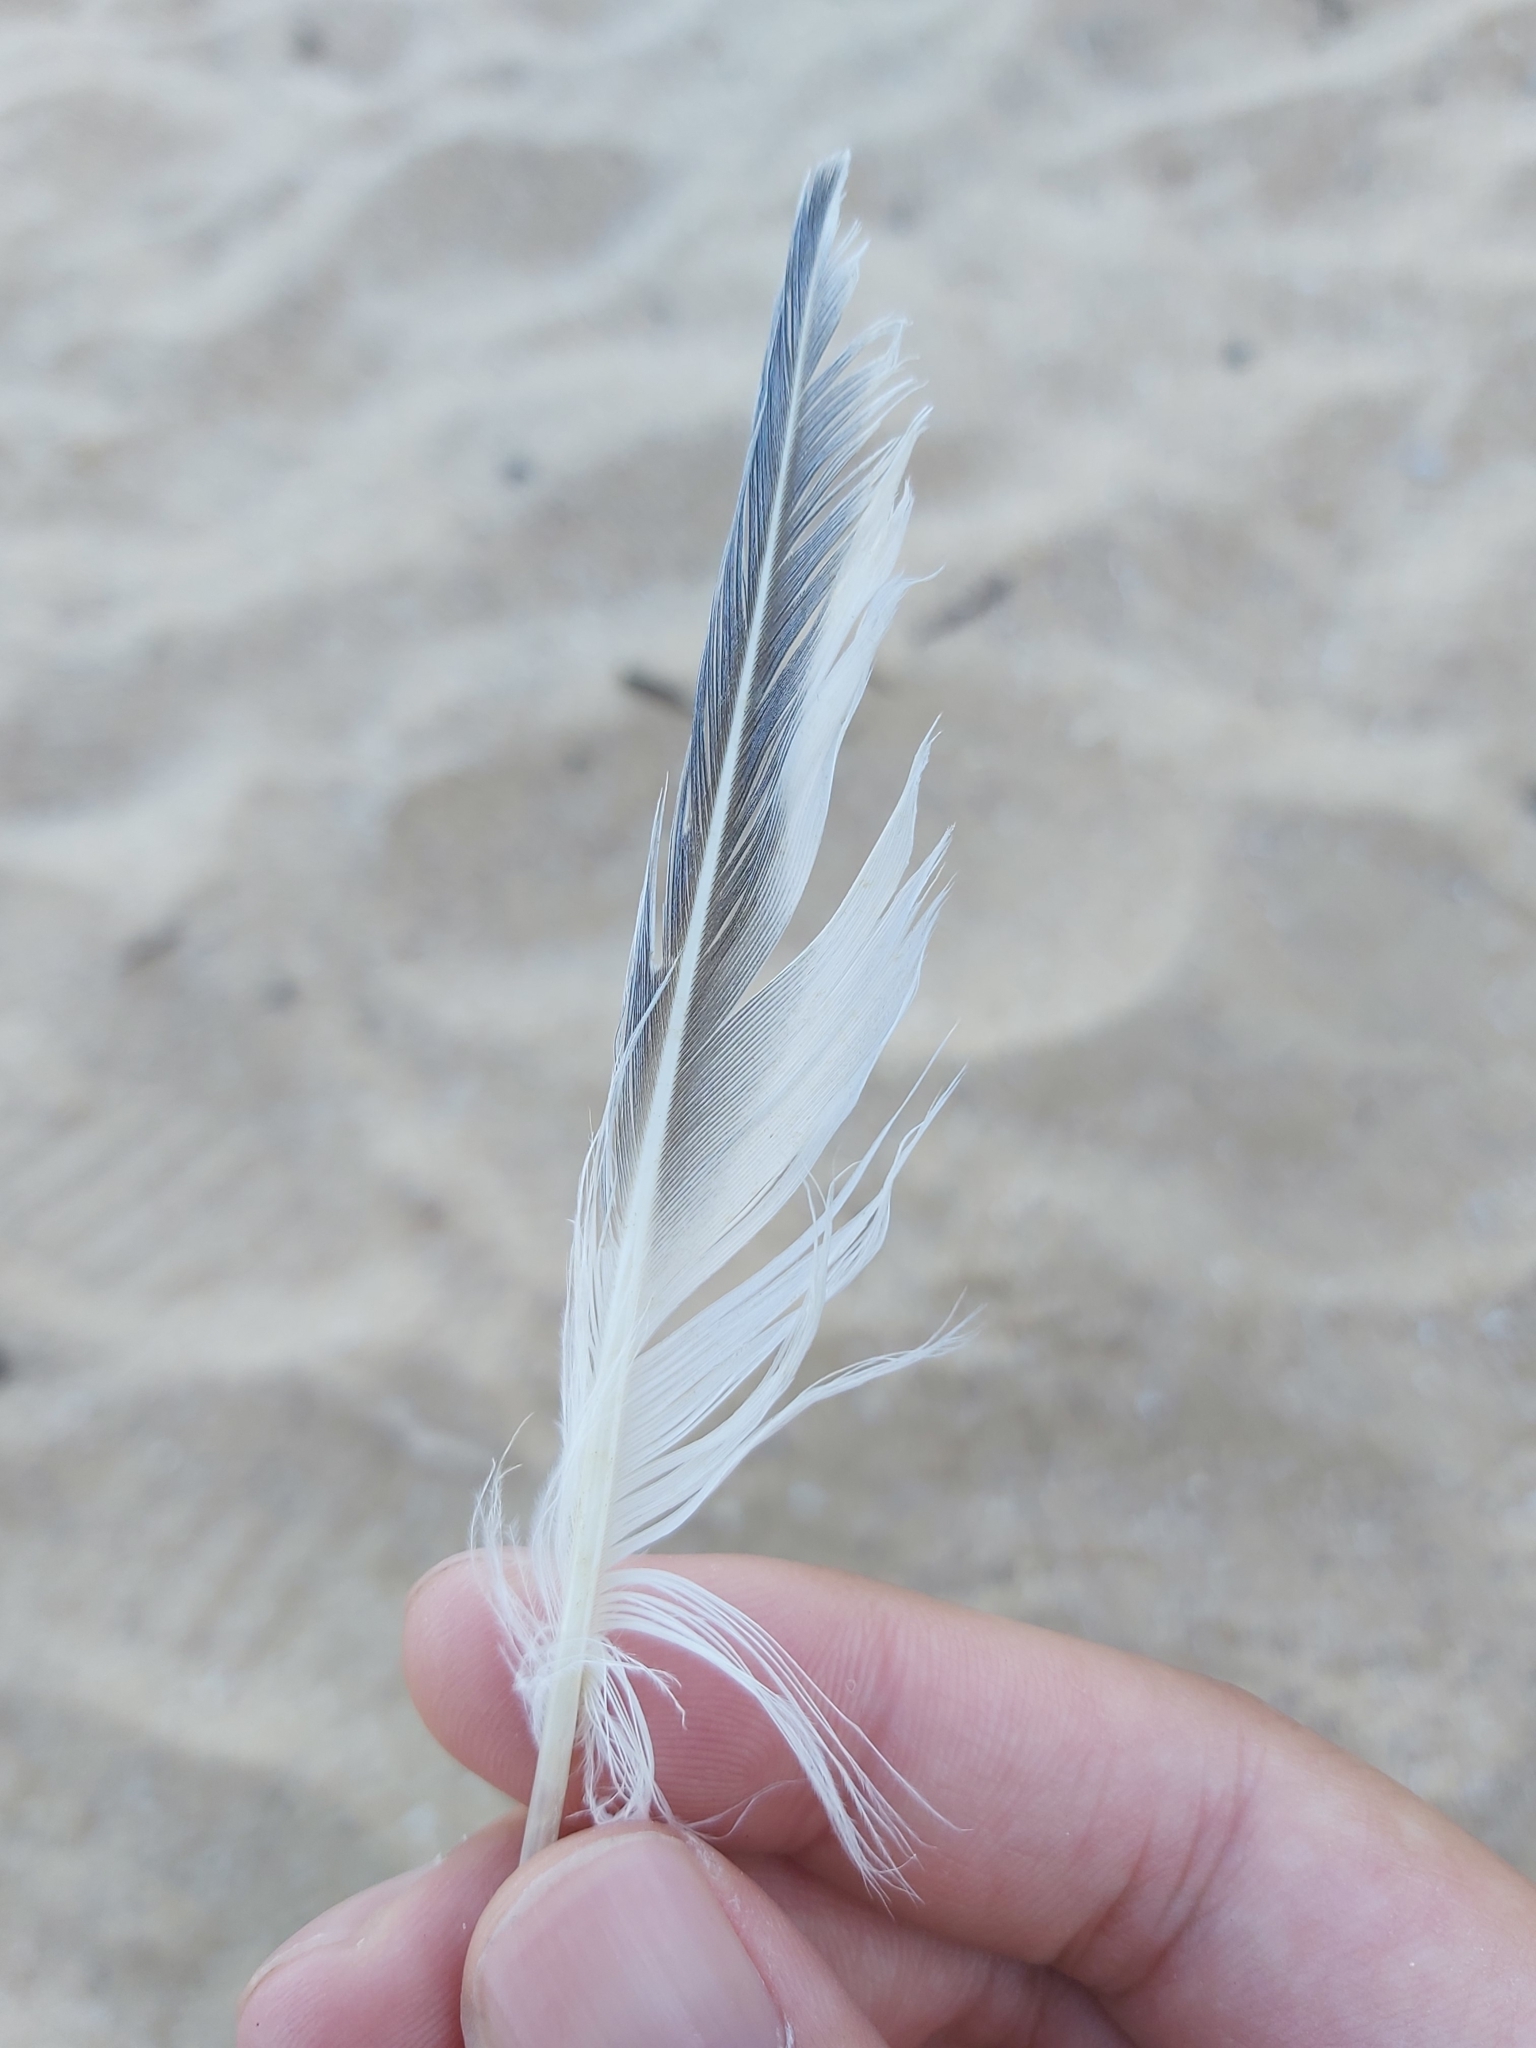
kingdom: Animalia
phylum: Chordata
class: Aves
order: Charadriiformes
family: Laridae
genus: Thalasseus
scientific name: Thalasseus bergii
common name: Greater crested tern
